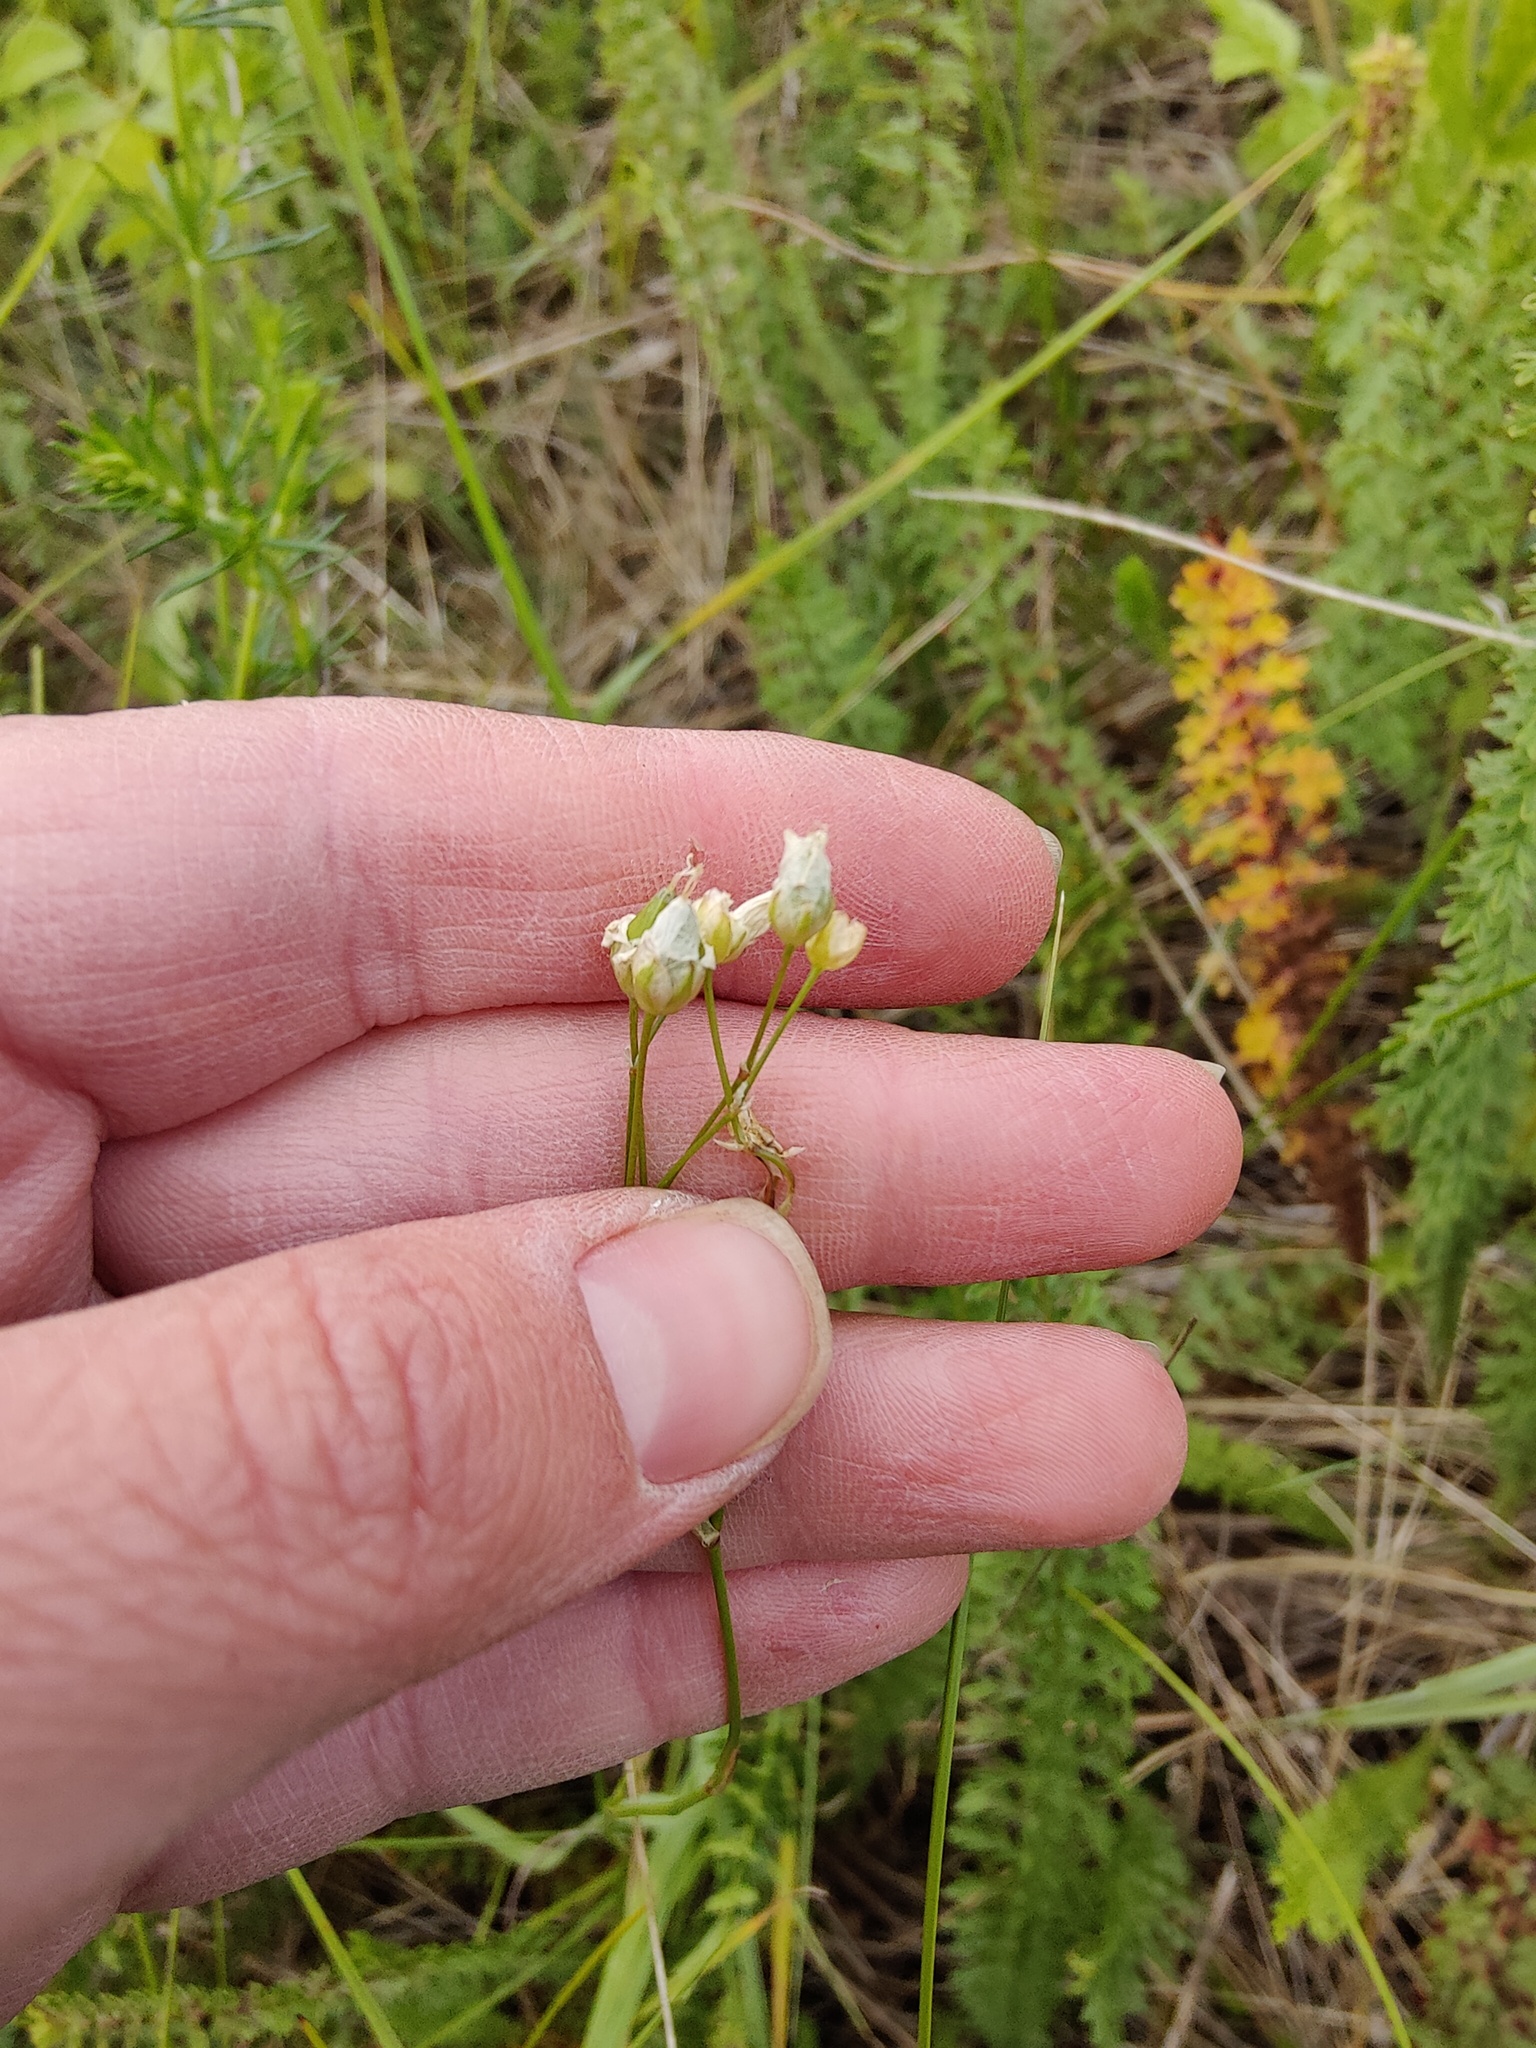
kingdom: Plantae
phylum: Tracheophyta
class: Magnoliopsida
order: Caryophyllales
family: Caryophyllaceae
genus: Eremogone
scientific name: Eremogone saxatilis
